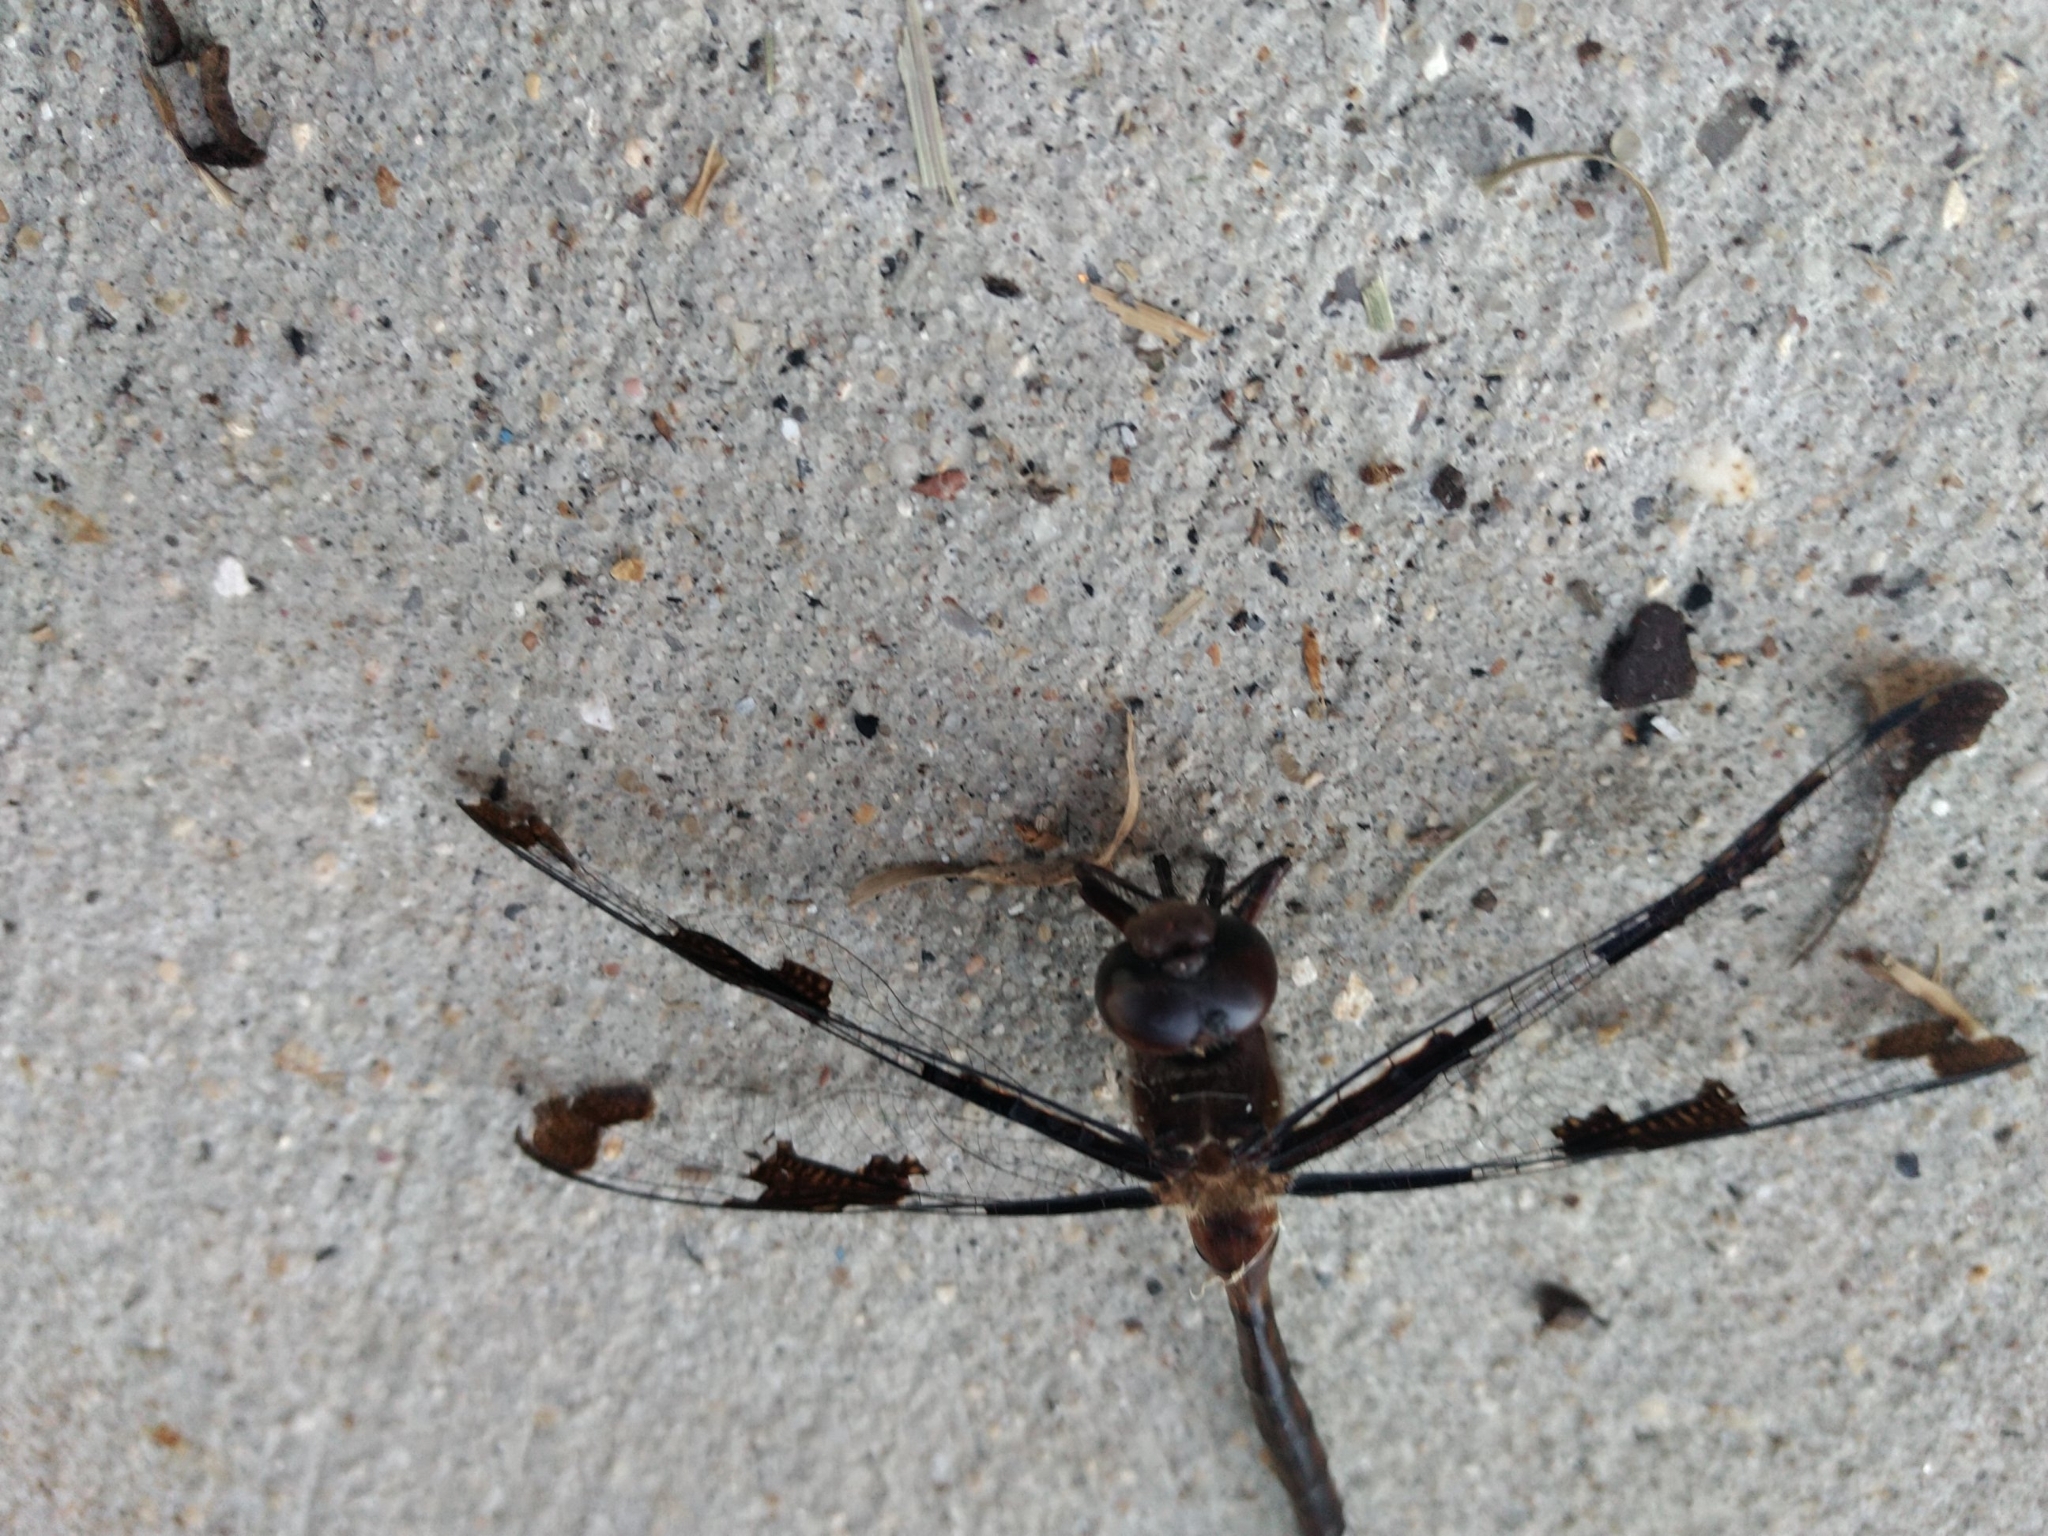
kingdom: Animalia
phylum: Arthropoda
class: Insecta
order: Odonata
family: Corduliidae
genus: Epitheca
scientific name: Epitheca princeps
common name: Prince baskettail
